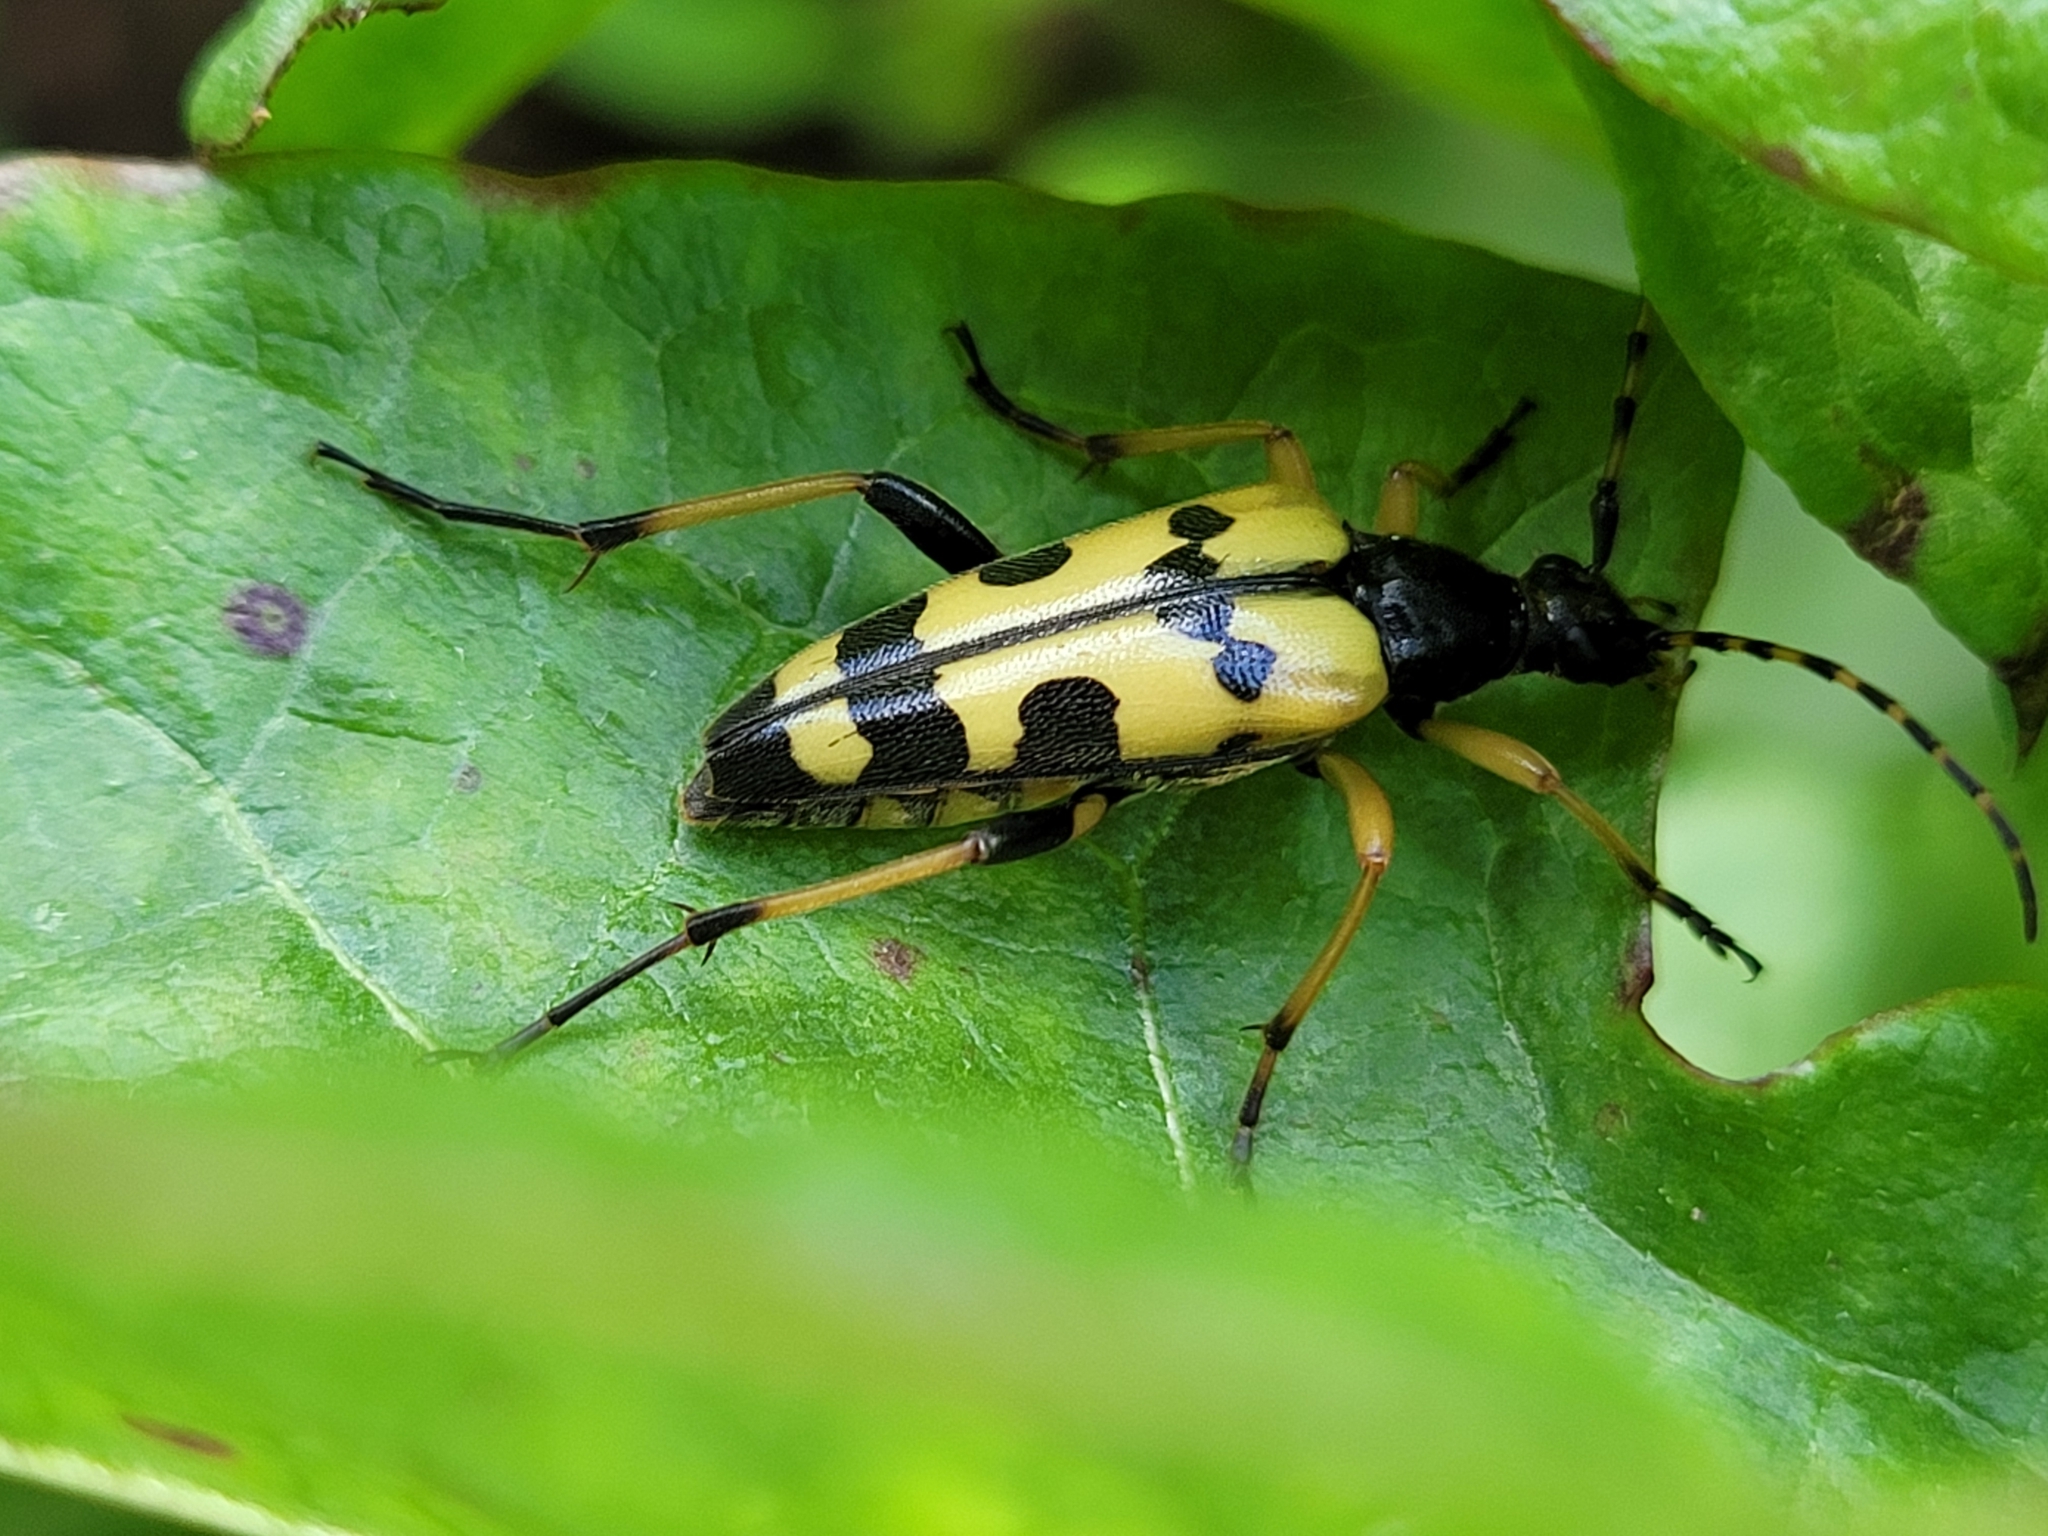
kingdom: Animalia
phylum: Arthropoda
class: Insecta
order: Coleoptera
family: Cerambycidae
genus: Rutpela
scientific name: Rutpela maculata
